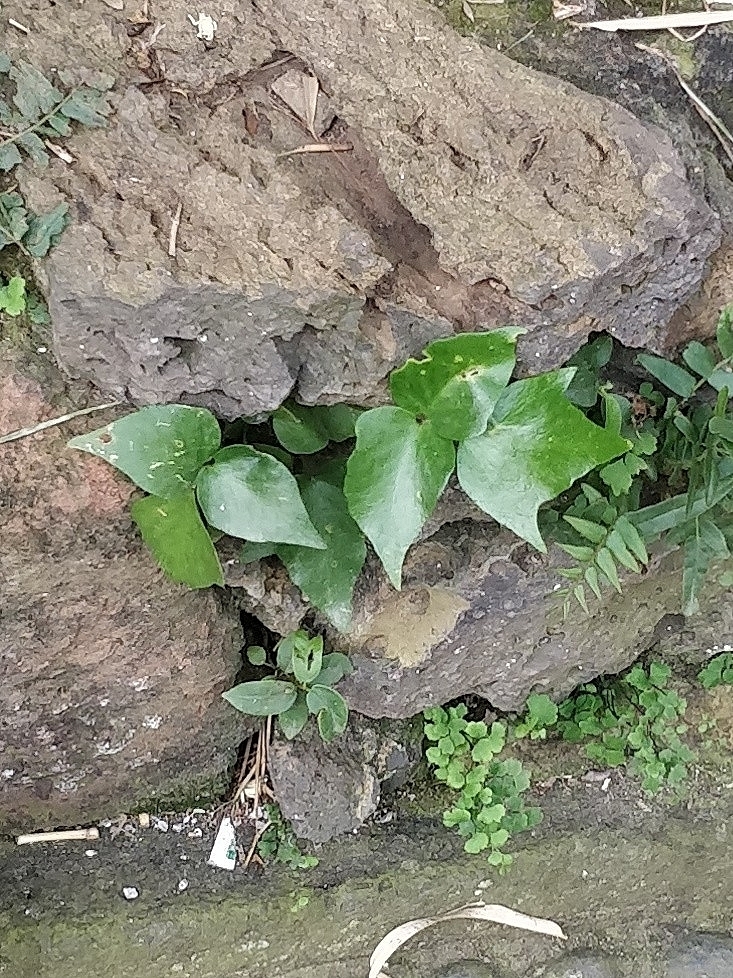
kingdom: Plantae
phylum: Tracheophyta
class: Polypodiopsida
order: Polypodiales
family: Dryopteridaceae
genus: Cyrtomium
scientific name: Cyrtomium falcatum
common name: House holly-fern
